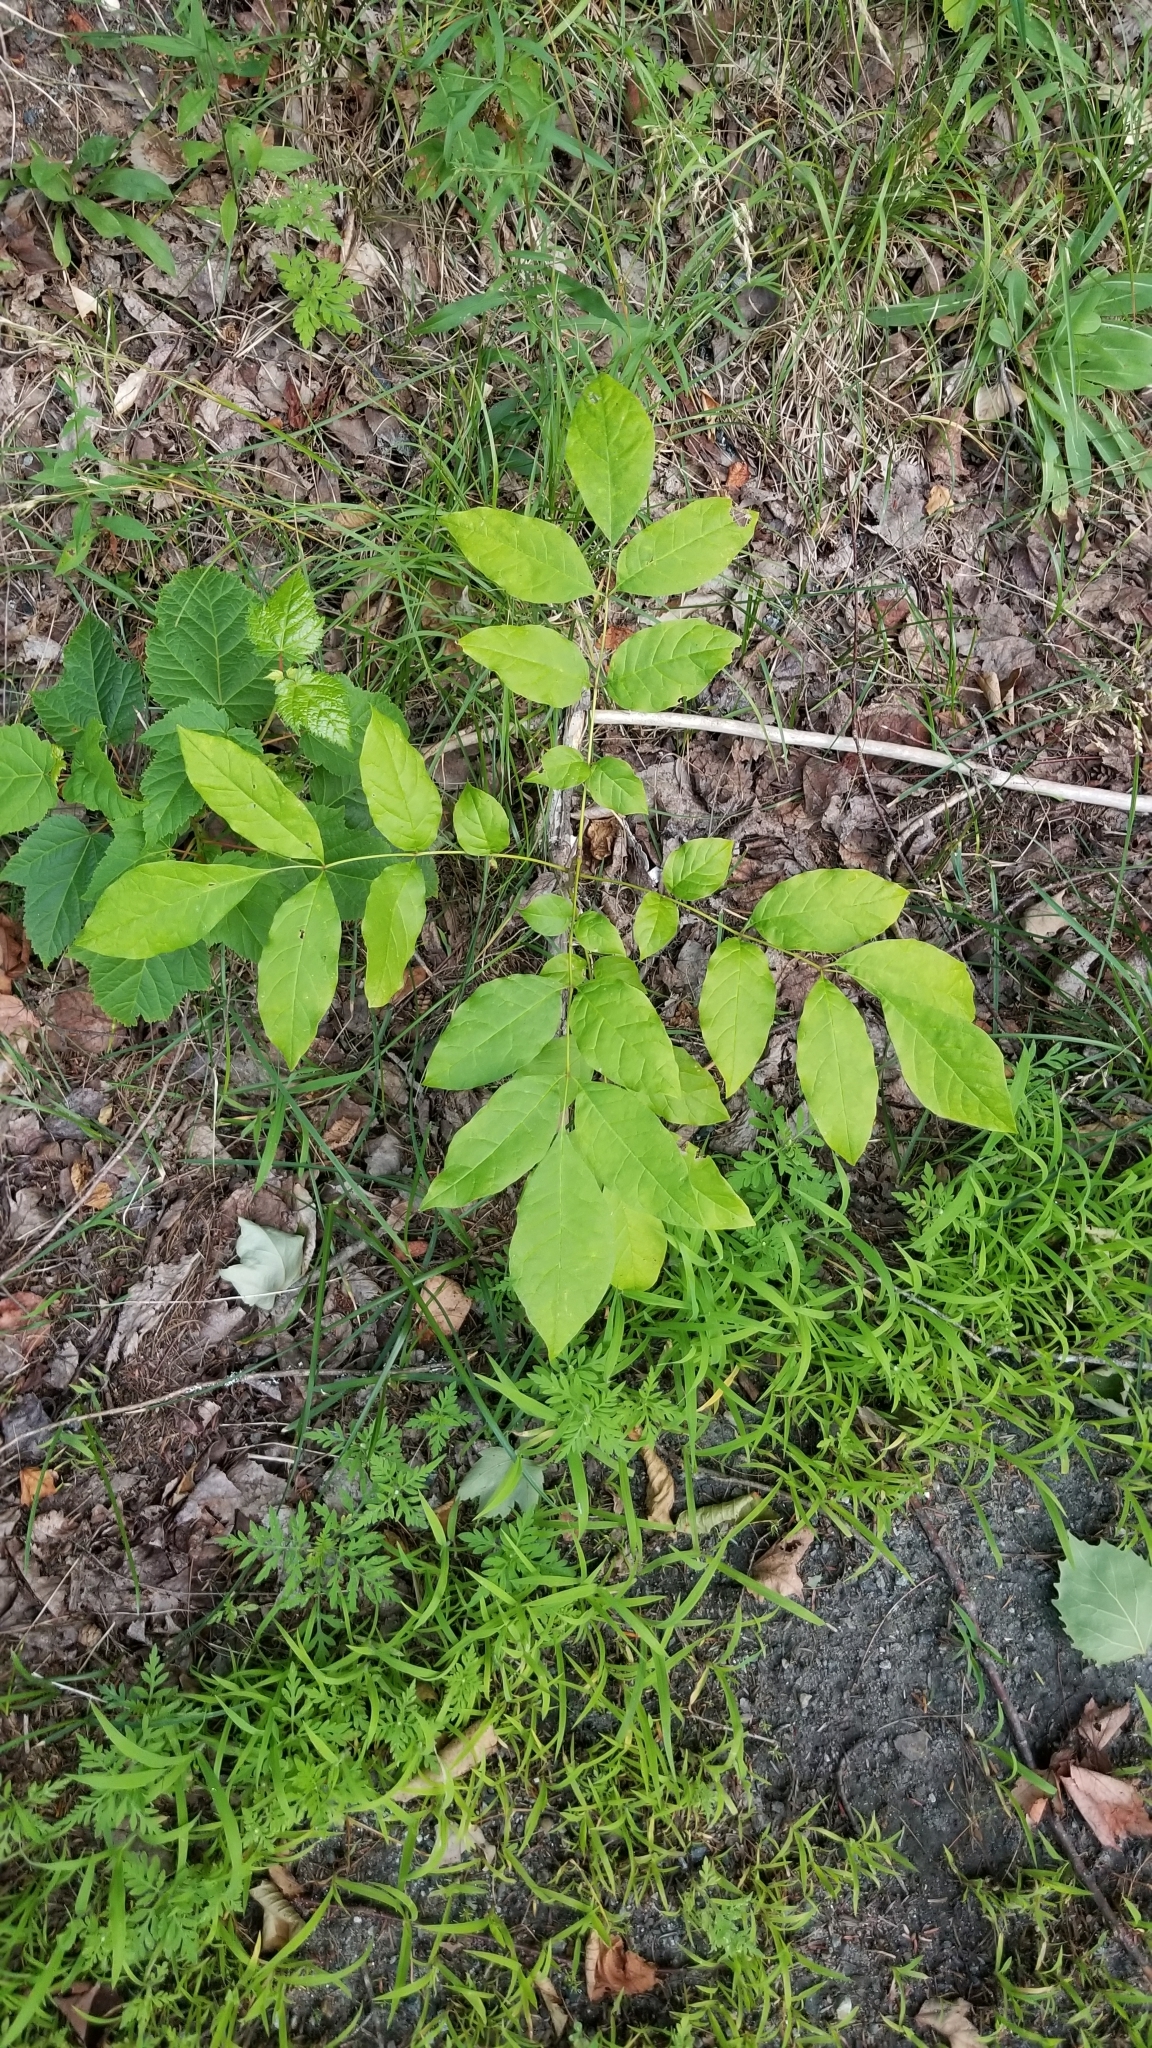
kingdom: Plantae
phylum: Tracheophyta
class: Magnoliopsida
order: Lamiales
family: Oleaceae
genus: Fraxinus
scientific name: Fraxinus americana
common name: White ash
